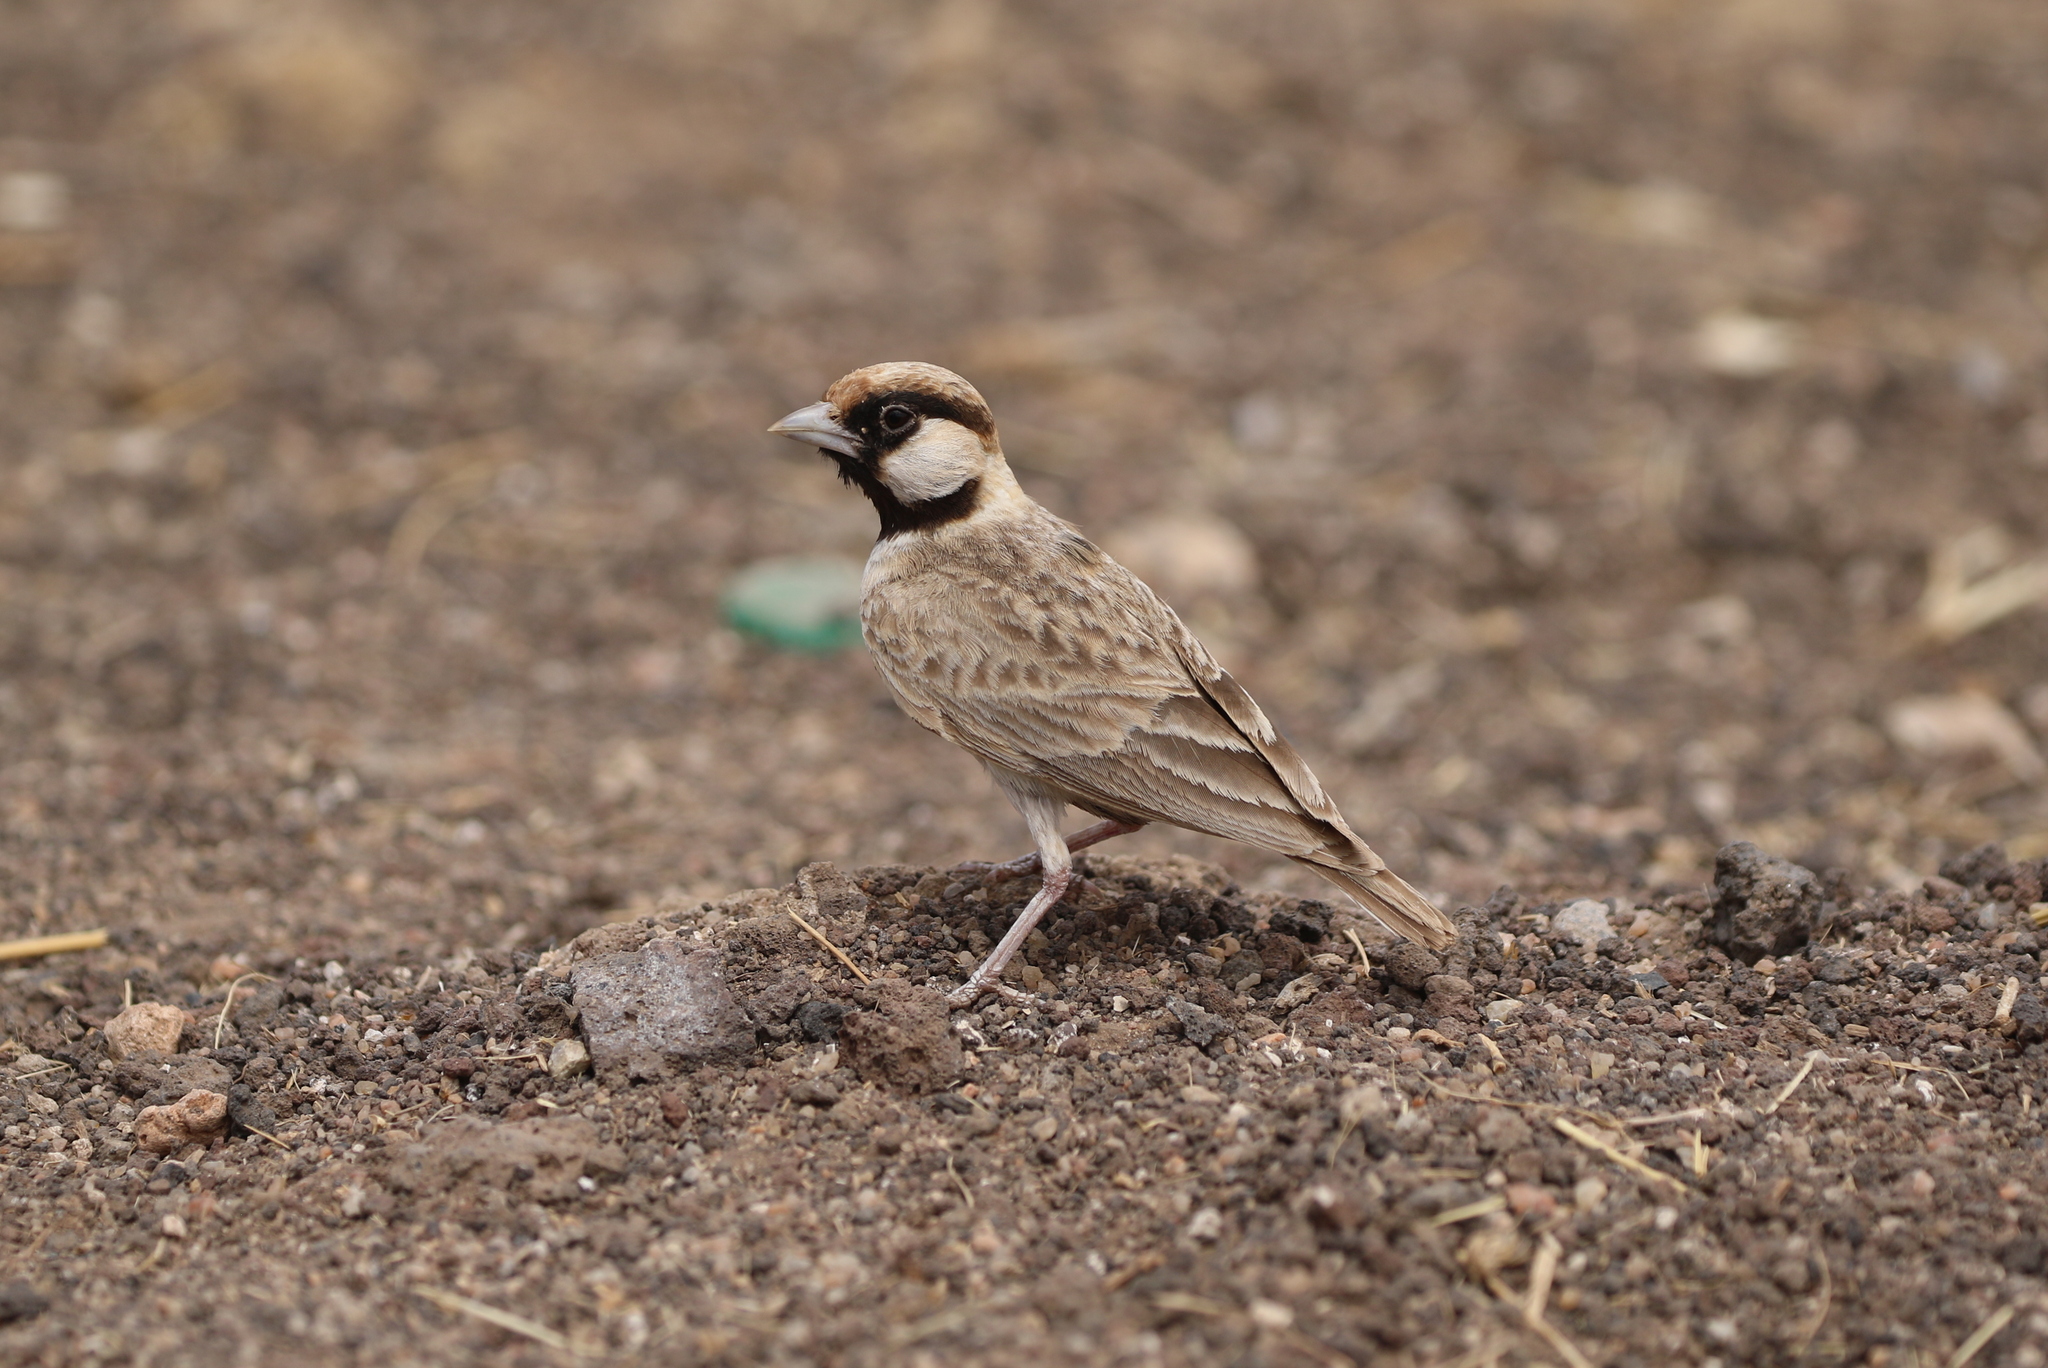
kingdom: Animalia
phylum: Chordata
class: Aves
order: Passeriformes
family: Alaudidae
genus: Eremopterix
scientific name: Eremopterix leucopareia
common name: Fischer's sparrow-lark
